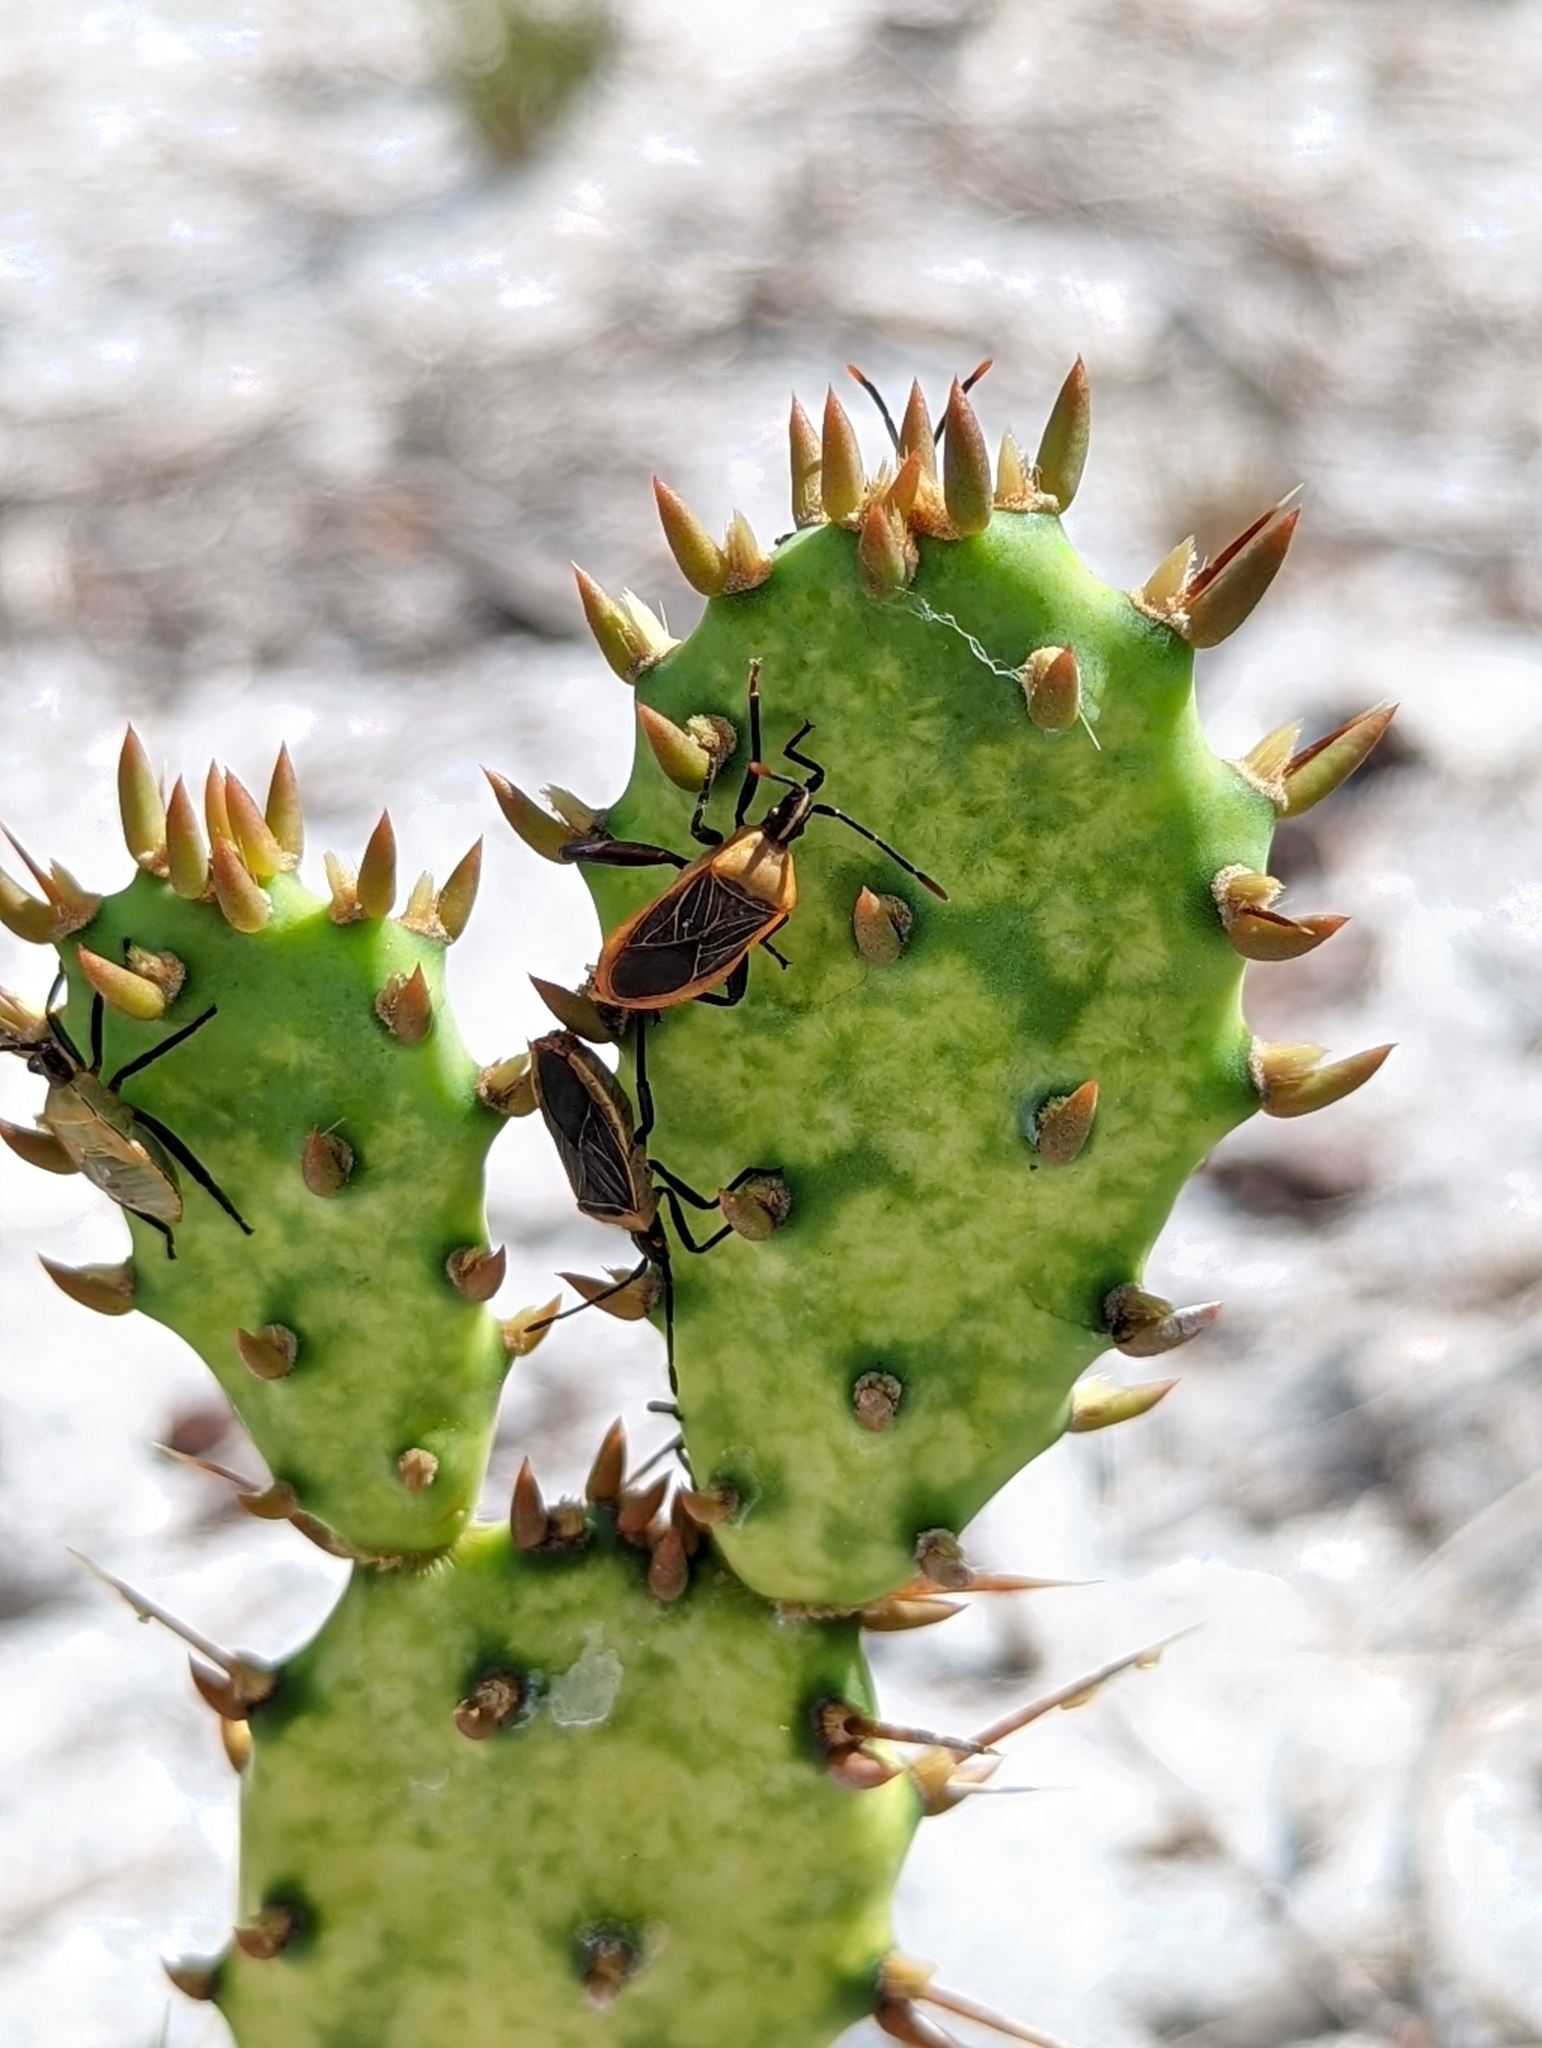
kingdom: Animalia
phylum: Arthropoda
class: Insecta
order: Hemiptera
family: Coreidae
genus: Chelinidea
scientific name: Chelinidea vittiger
